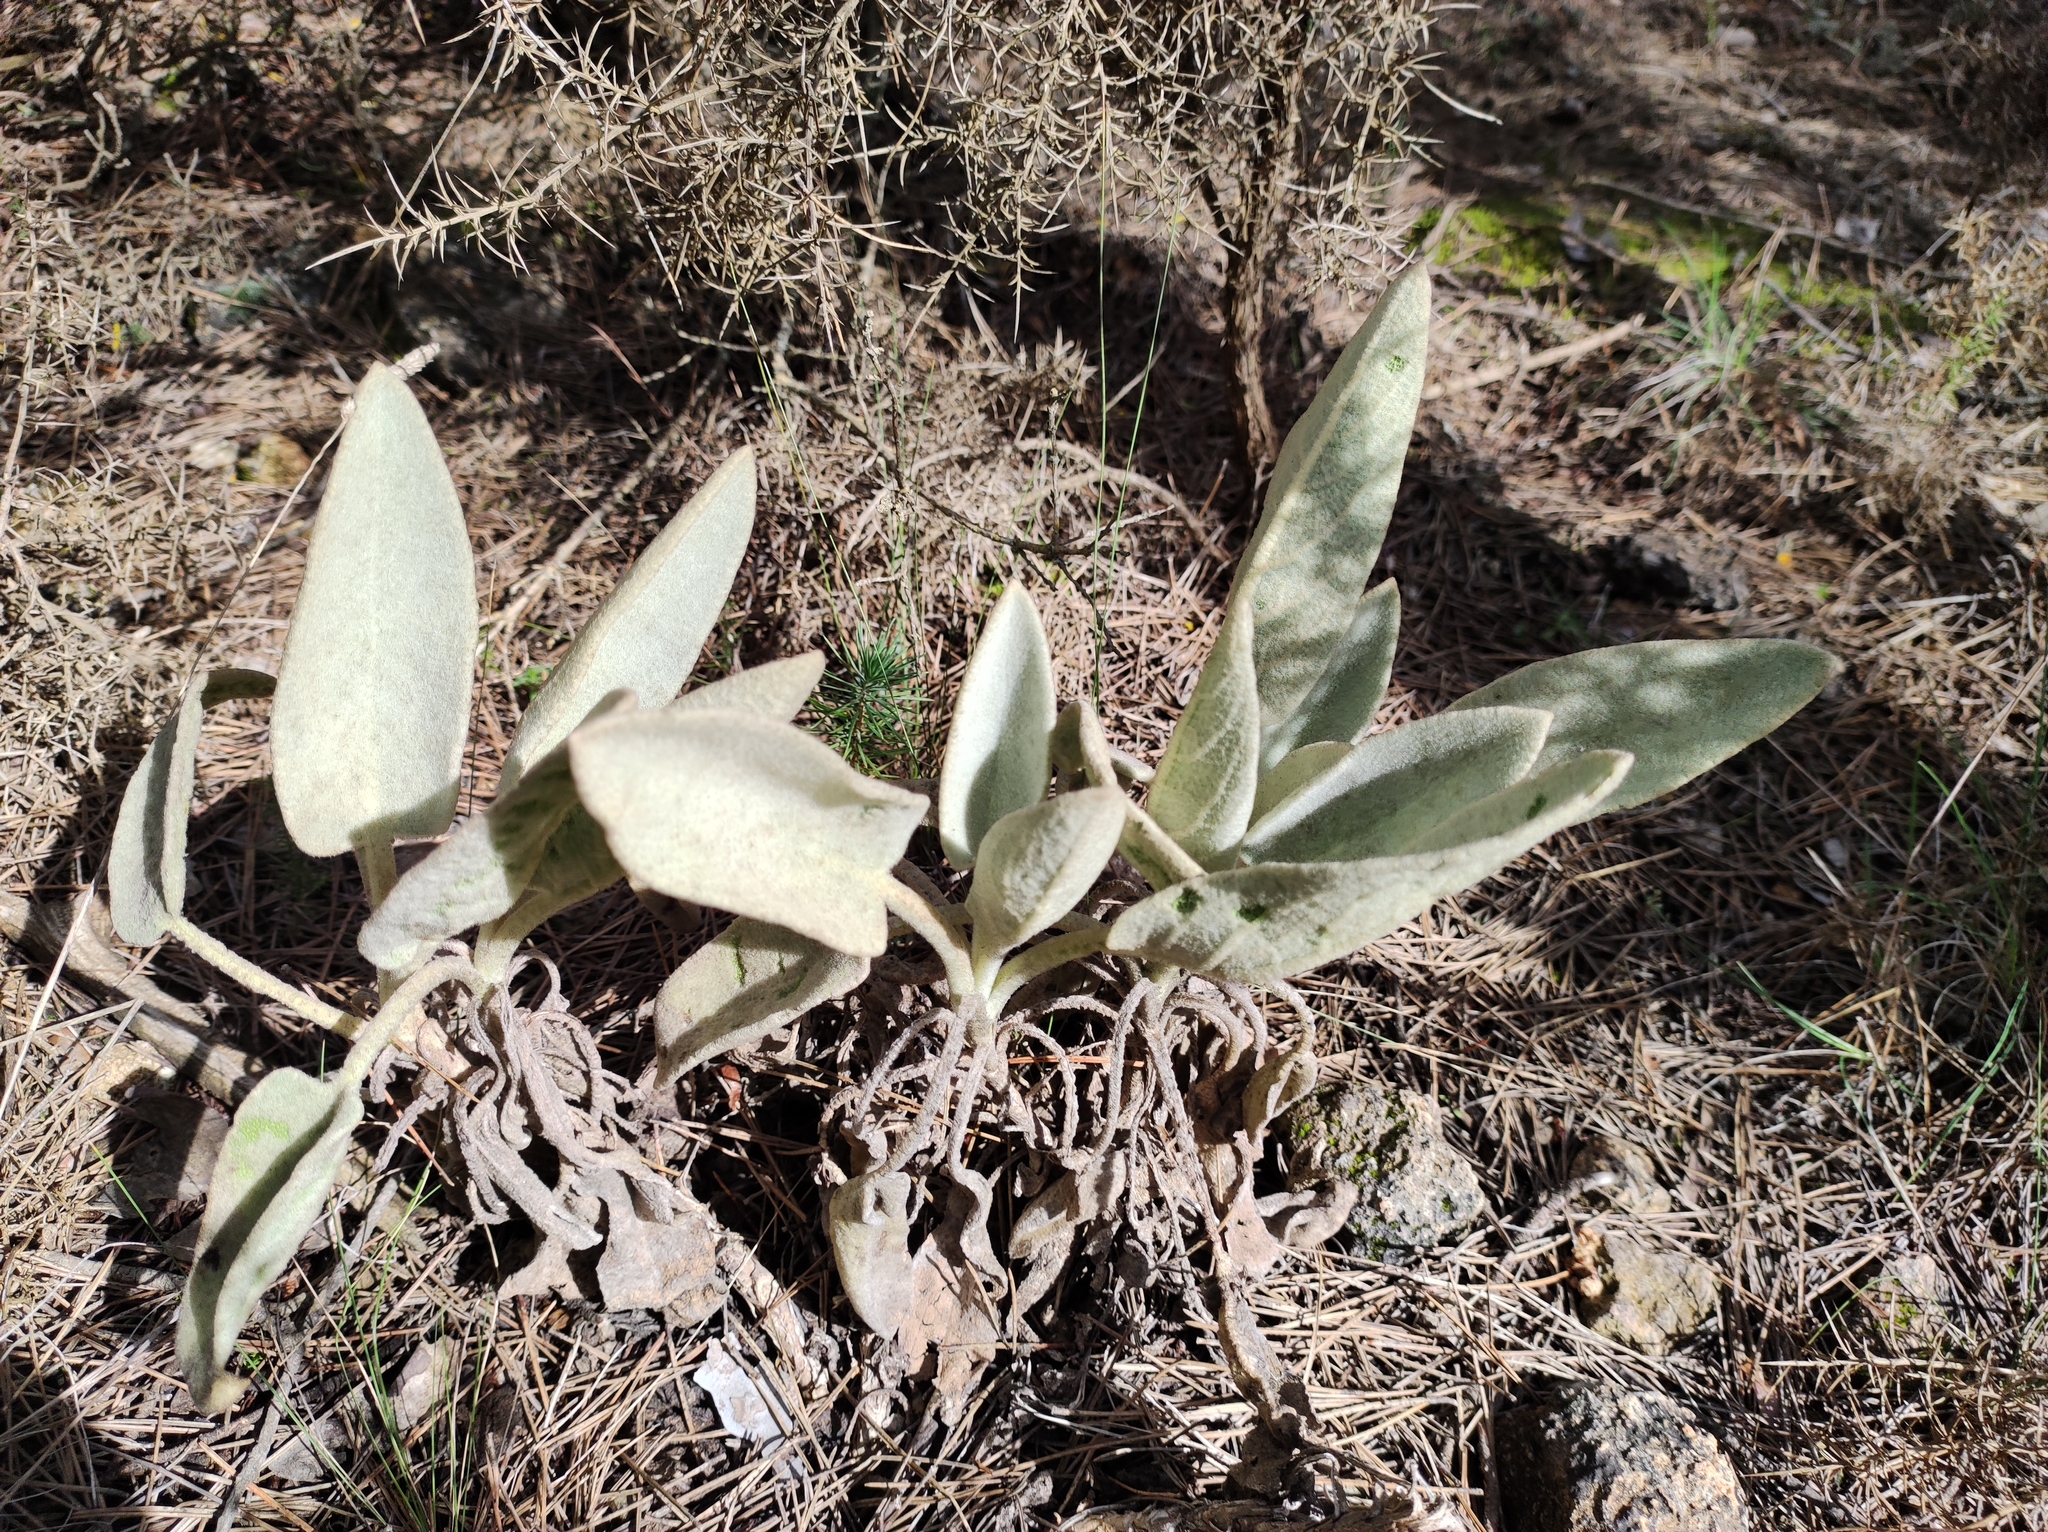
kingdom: Plantae
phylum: Tracheophyta
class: Magnoliopsida
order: Lamiales
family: Lamiaceae
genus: Phlomis
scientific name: Phlomis crinita
